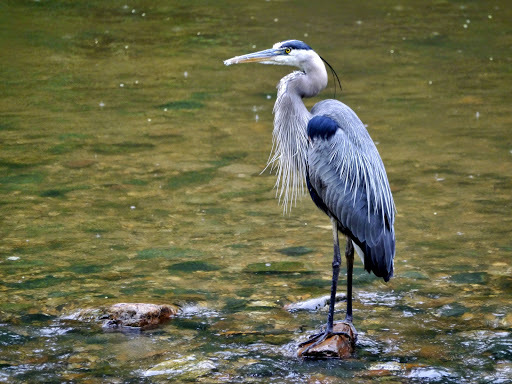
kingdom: Animalia
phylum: Chordata
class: Aves
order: Pelecaniformes
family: Ardeidae
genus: Ardea
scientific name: Ardea herodias
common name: Great blue heron
